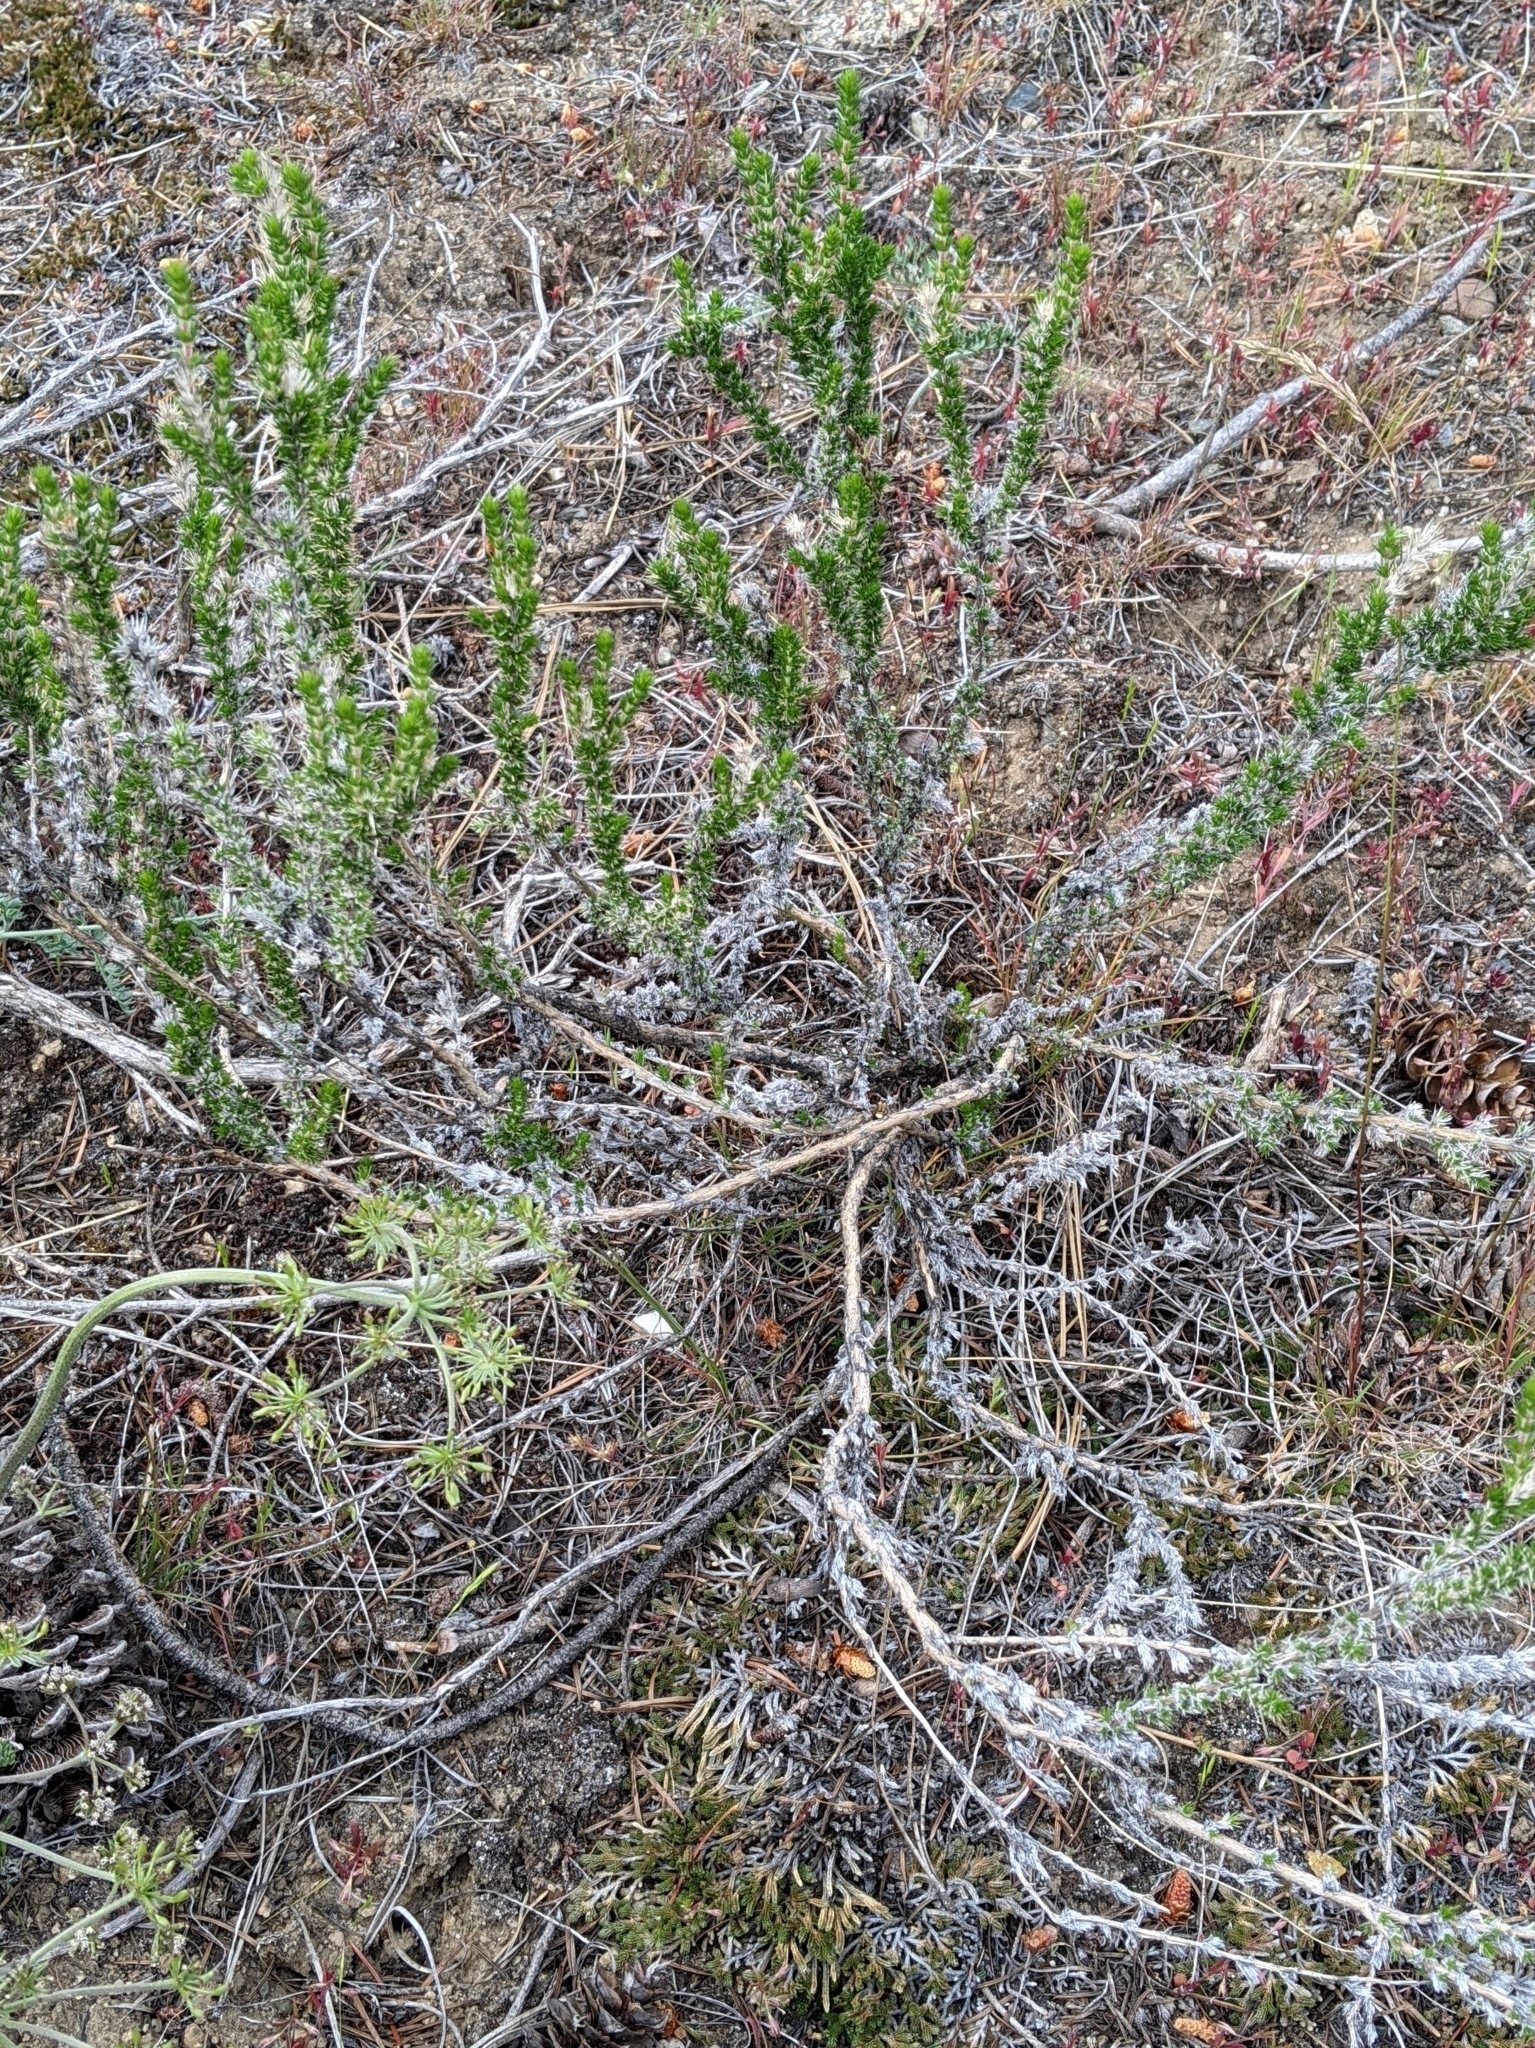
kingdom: Plantae
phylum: Tracheophyta
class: Magnoliopsida
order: Ericales
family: Polemoniaceae
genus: Linanthus
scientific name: Linanthus pungens
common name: Granite prickly phlox
